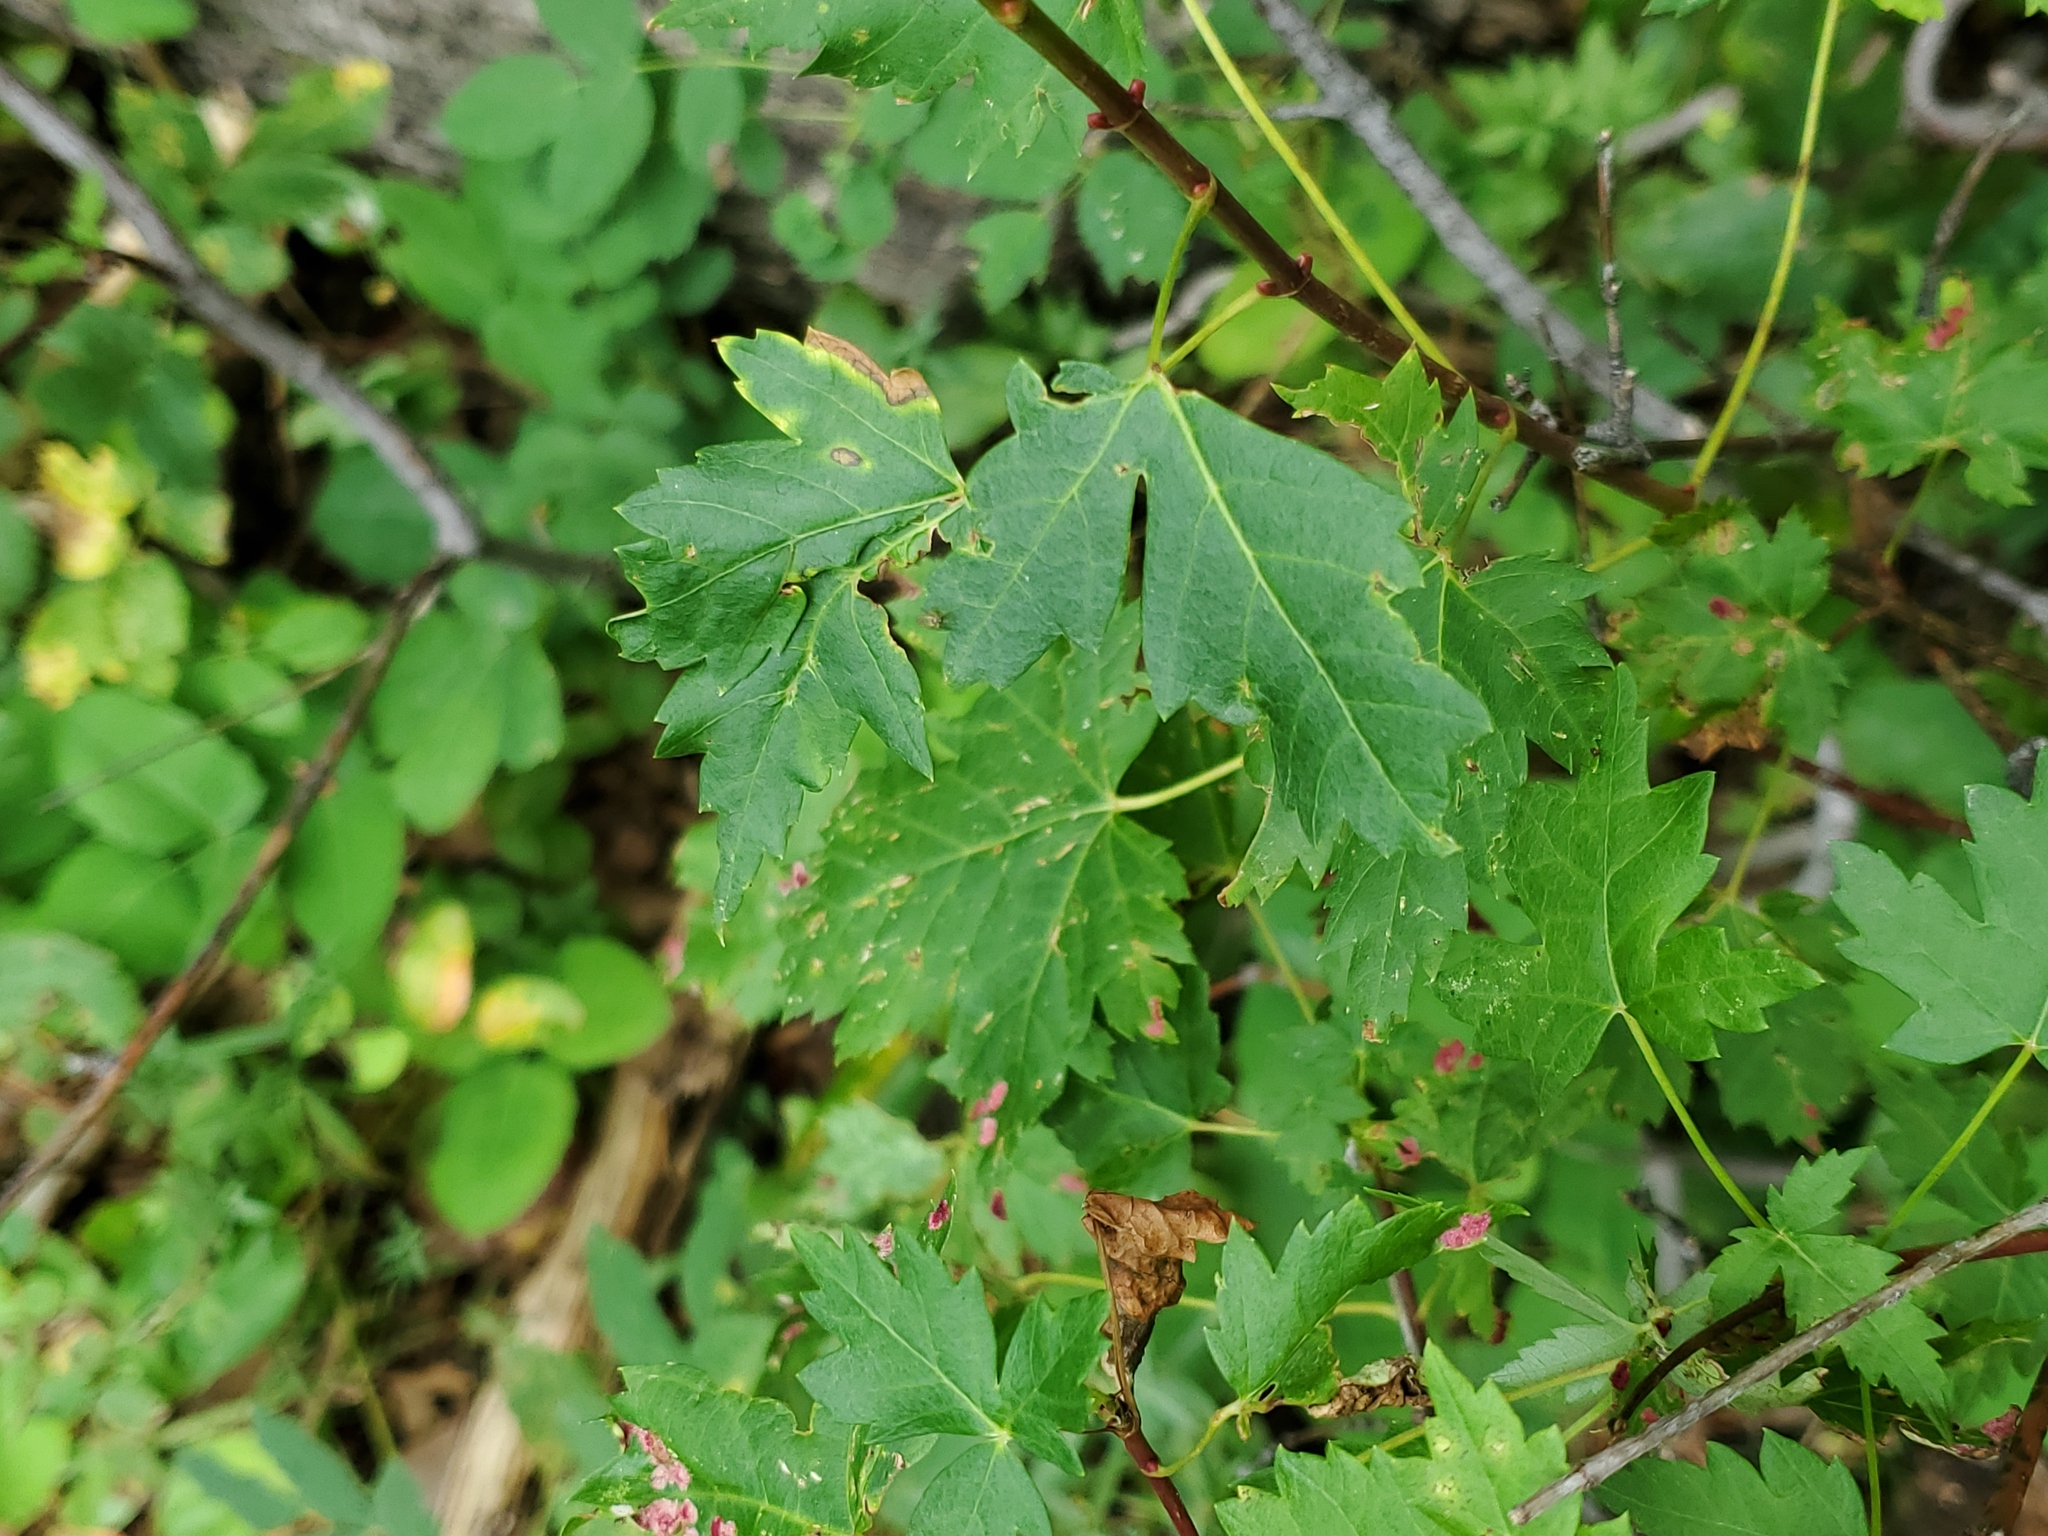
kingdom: Plantae
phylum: Tracheophyta
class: Magnoliopsida
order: Sapindales
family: Sapindaceae
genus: Acer
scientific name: Acer glabrum
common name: Rocky mountain maple
